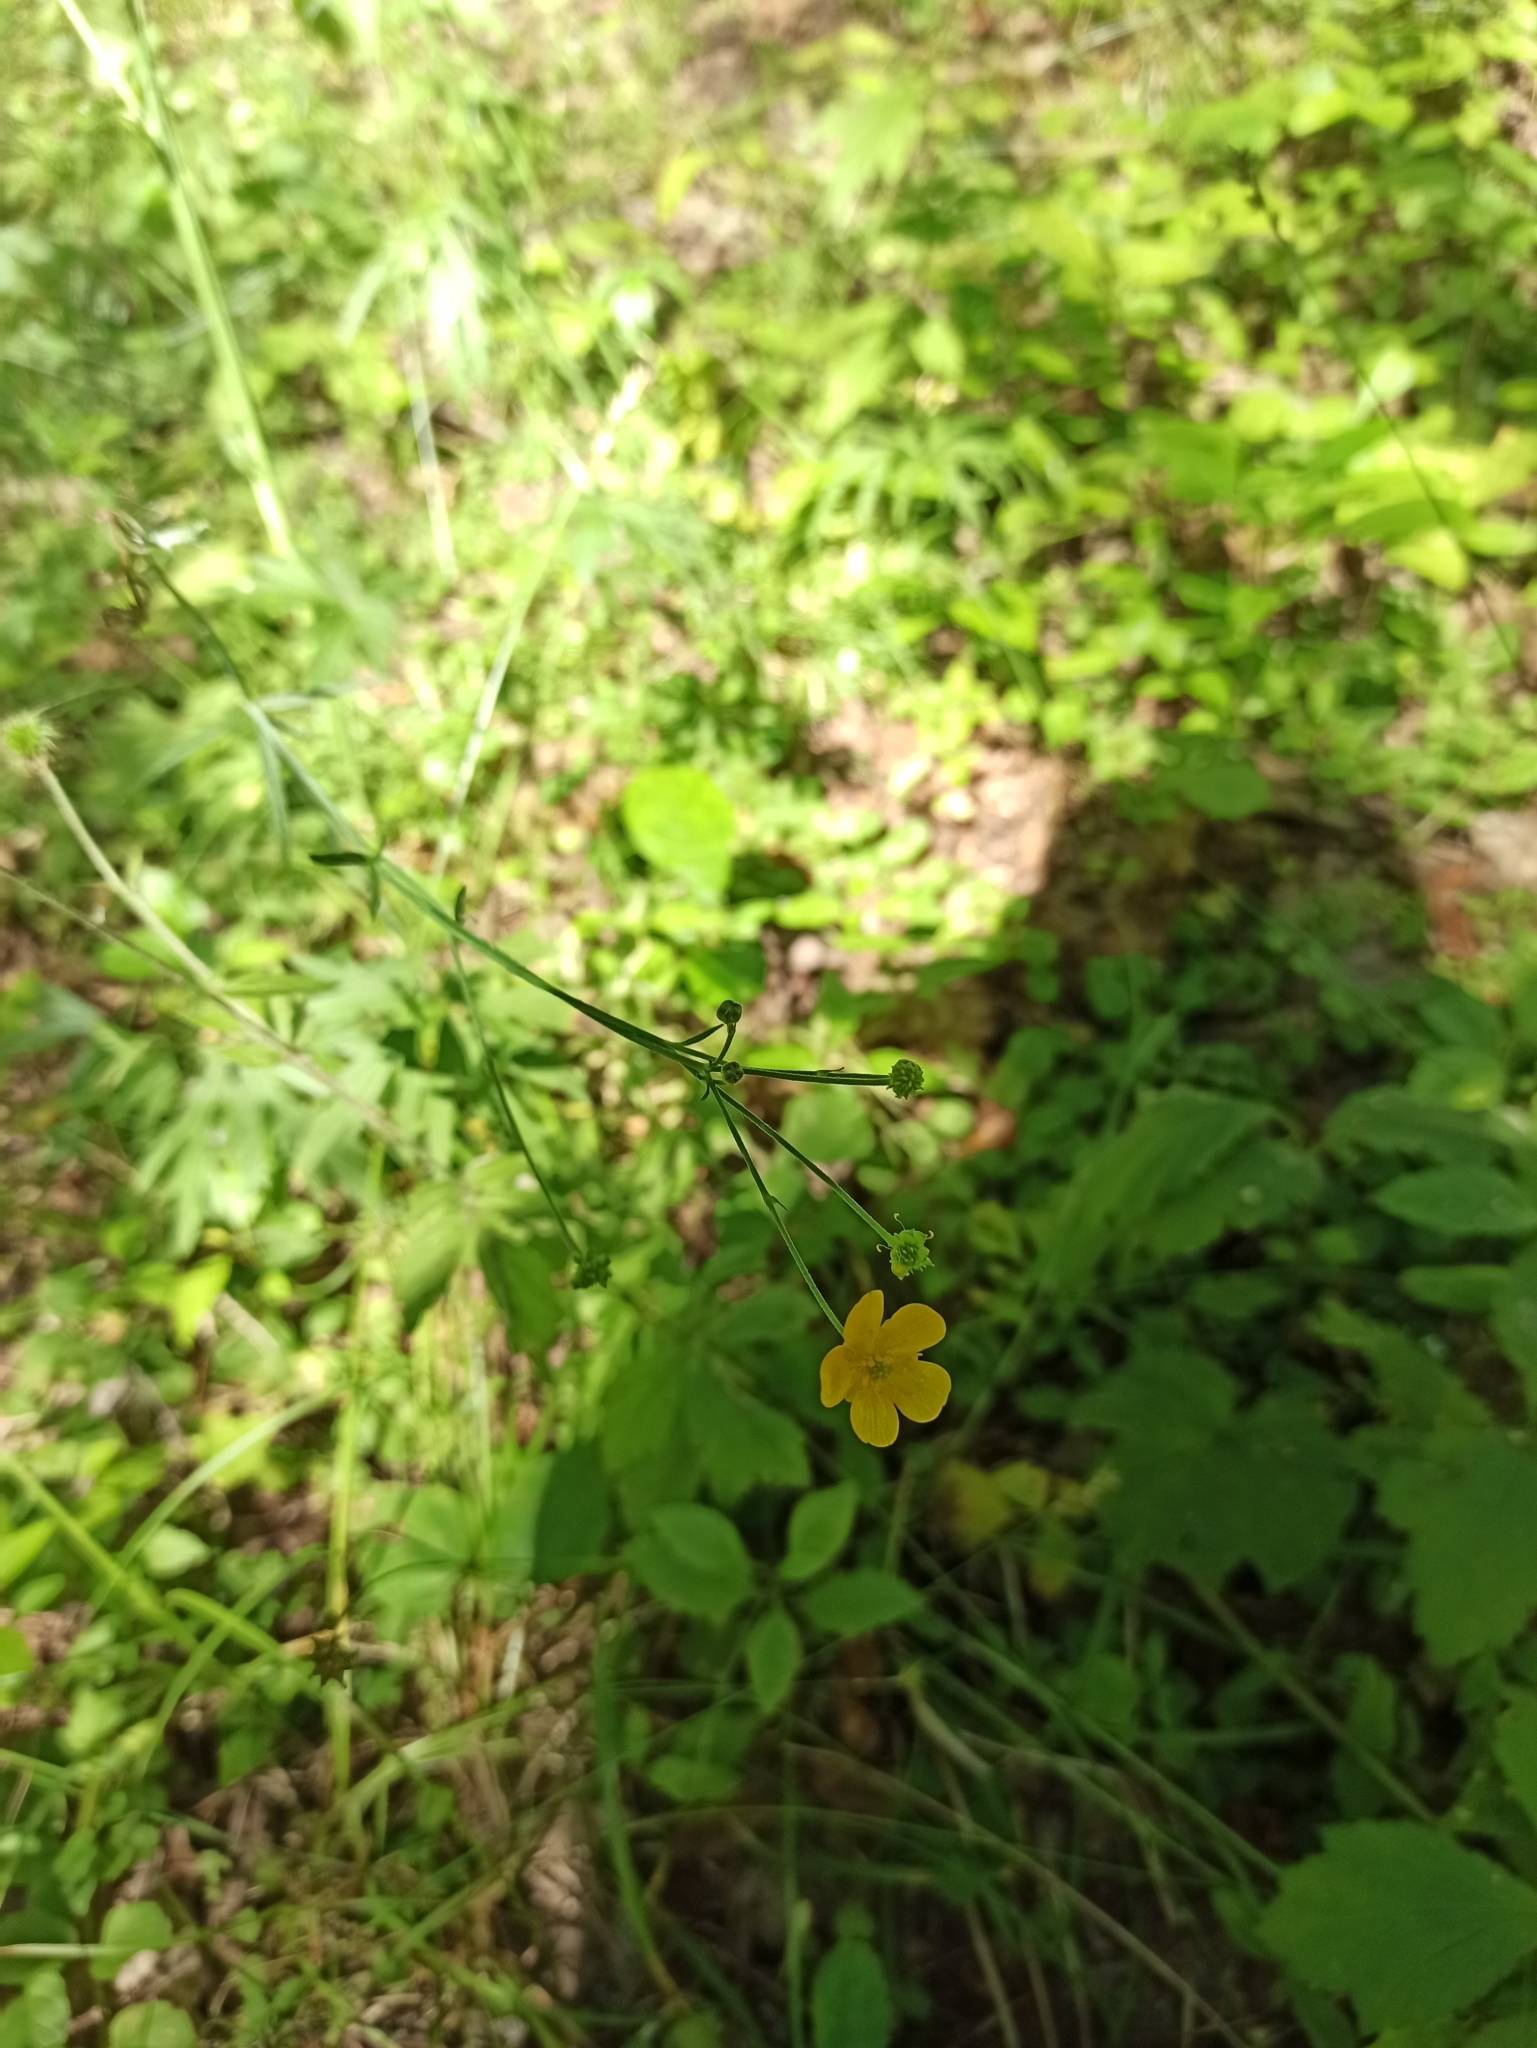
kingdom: Plantae
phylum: Tracheophyta
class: Magnoliopsida
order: Ranunculales
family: Ranunculaceae
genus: Ranunculus
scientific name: Ranunculus acris
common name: Meadow buttercup
